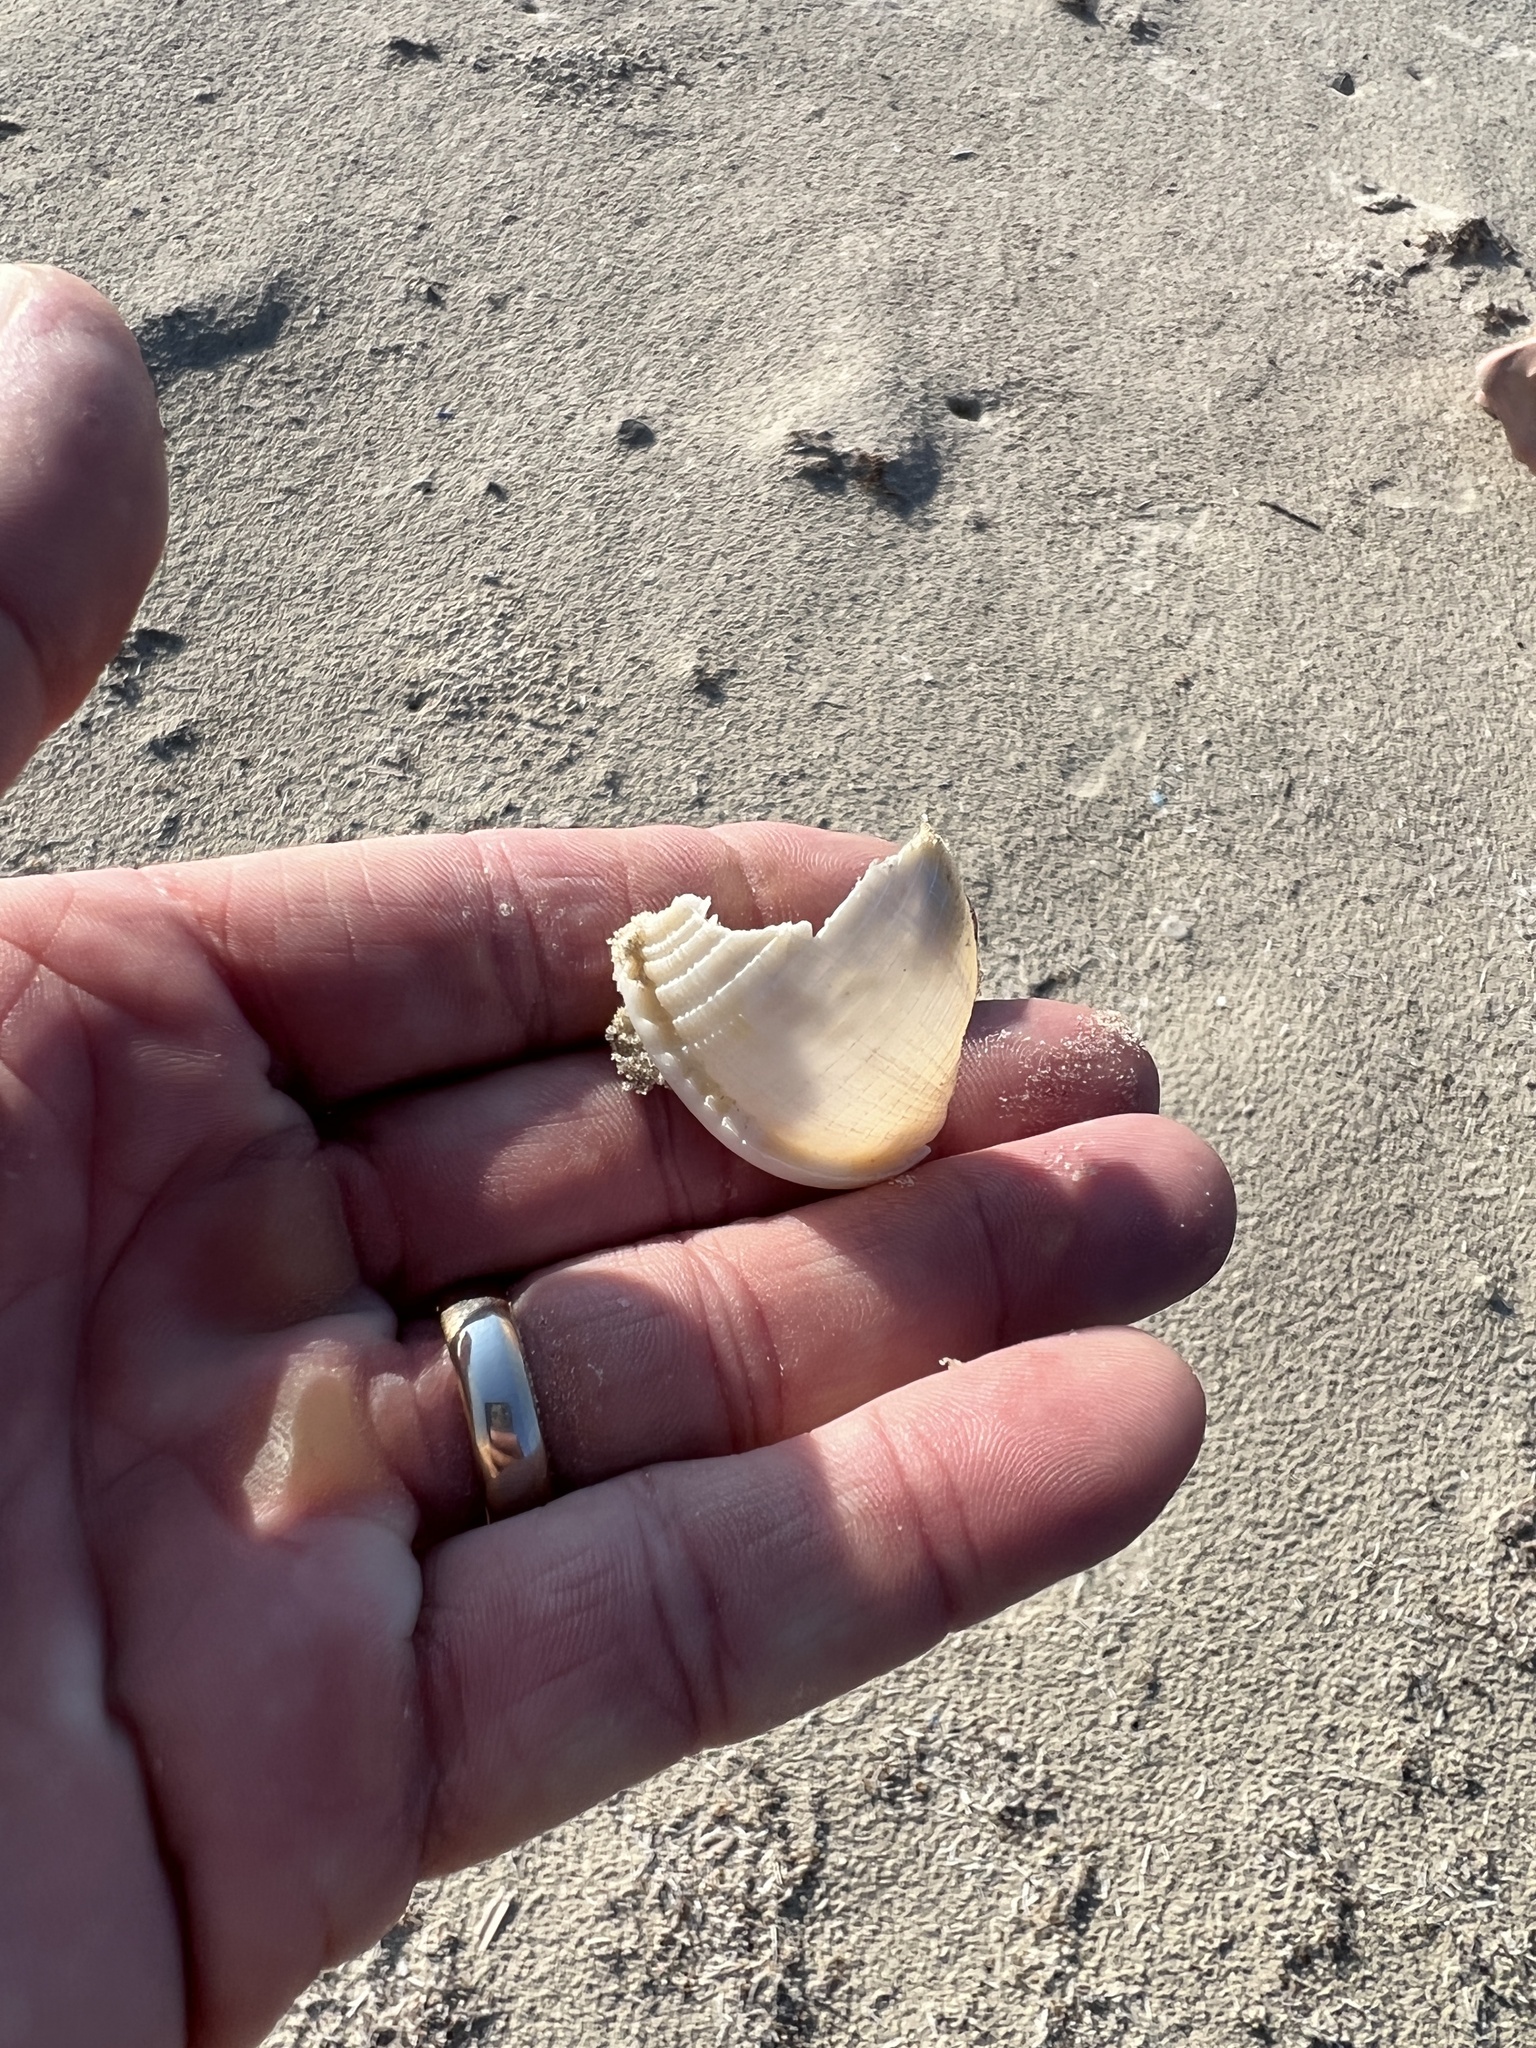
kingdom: Animalia
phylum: Mollusca
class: Gastropoda
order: Littorinimorpha
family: Cassidae
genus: Semicassis
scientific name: Semicassis granulata
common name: Scotch bonnet
